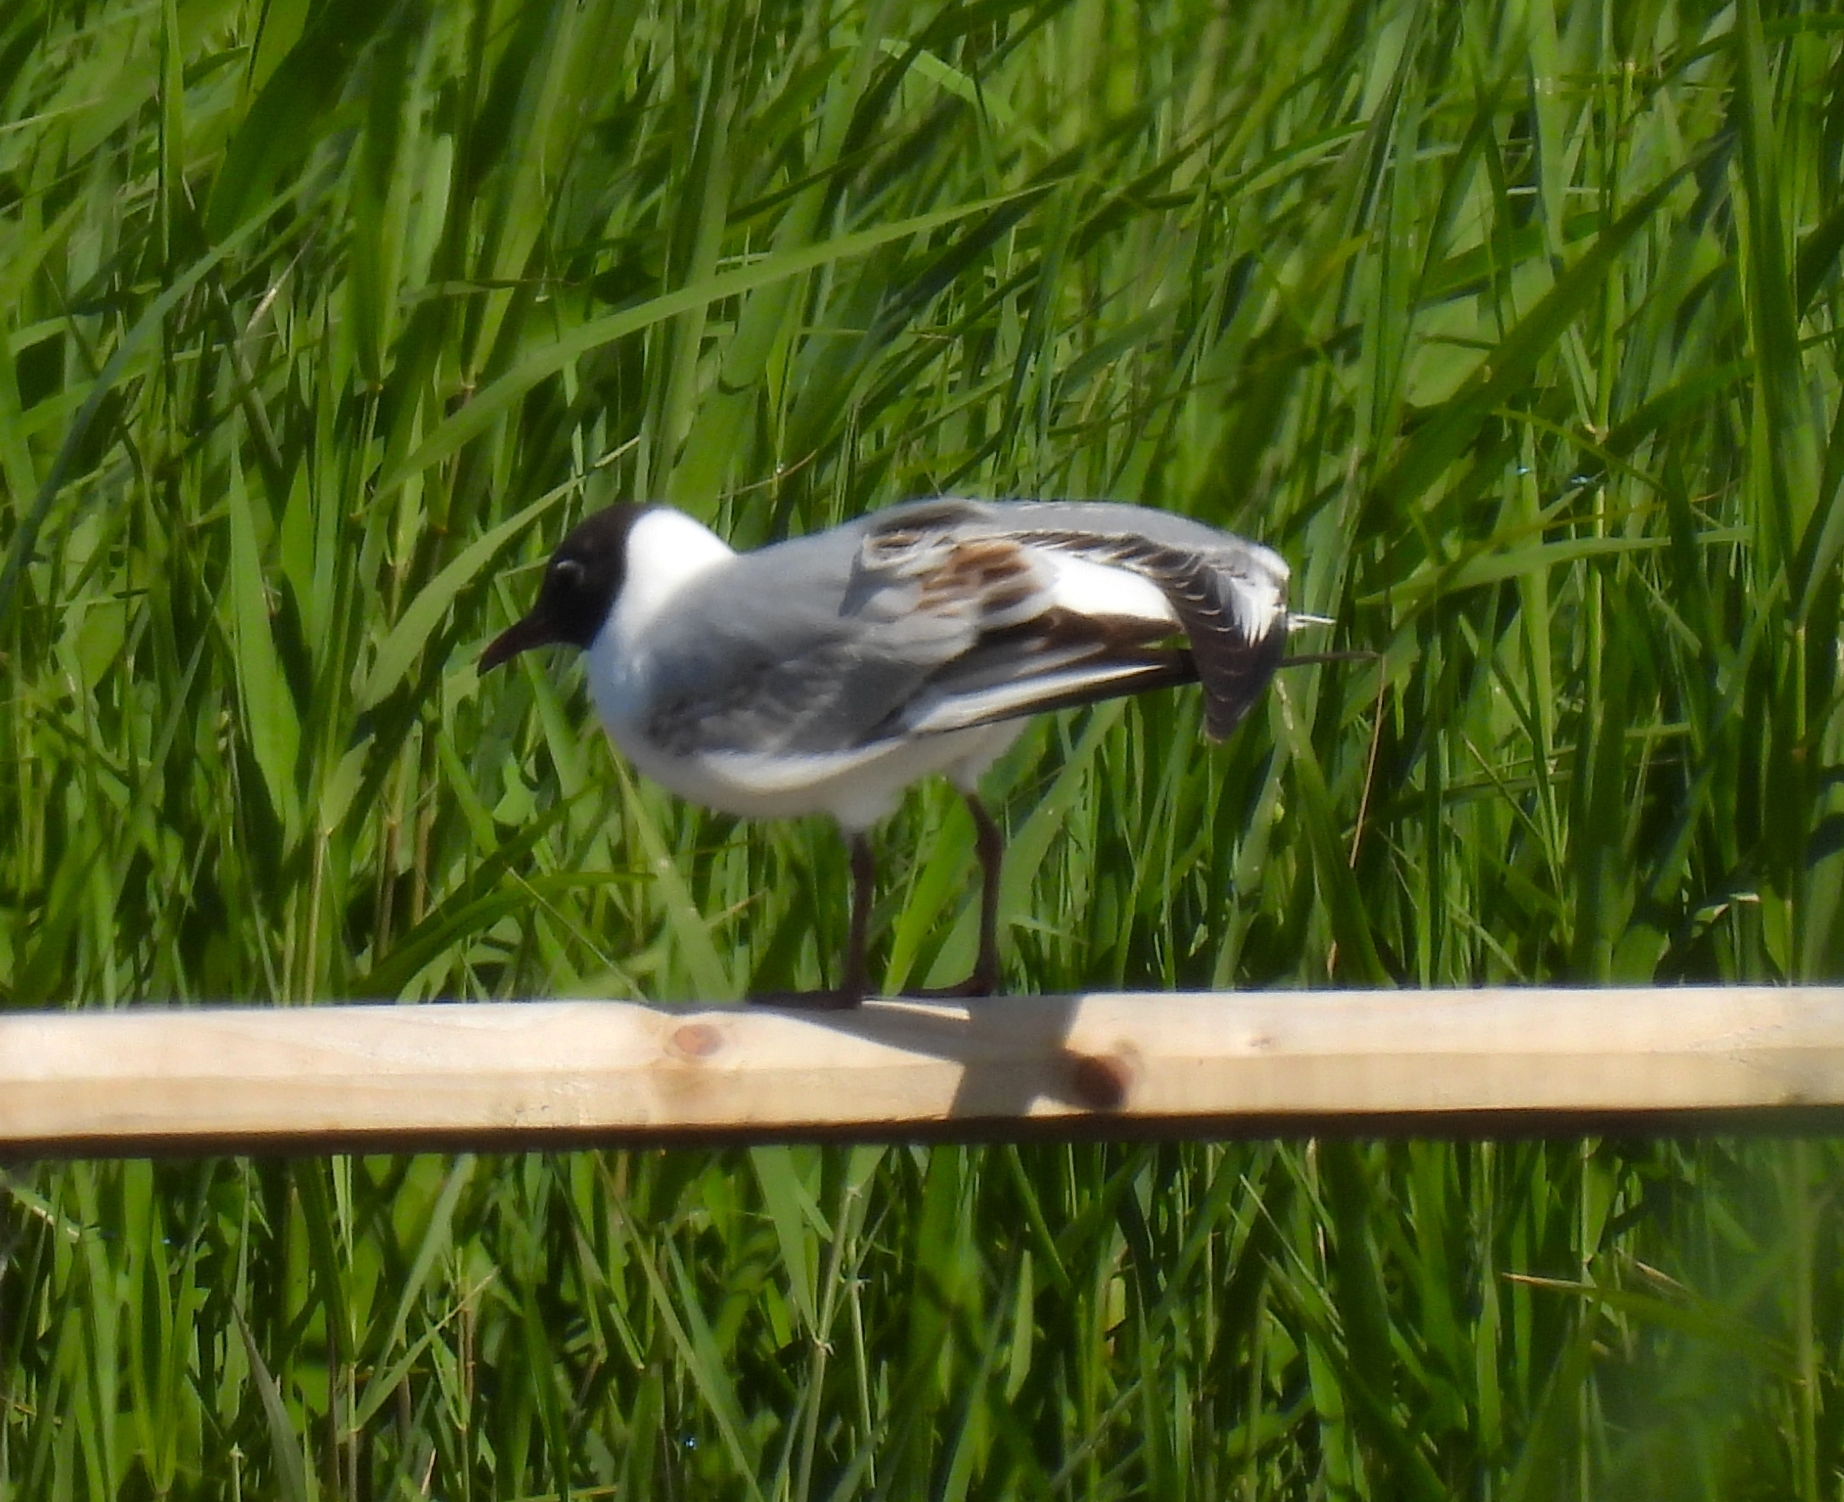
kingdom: Animalia
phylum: Chordata
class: Aves
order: Charadriiformes
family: Laridae
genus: Chroicocephalus
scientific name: Chroicocephalus ridibundus
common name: Black-headed gull
